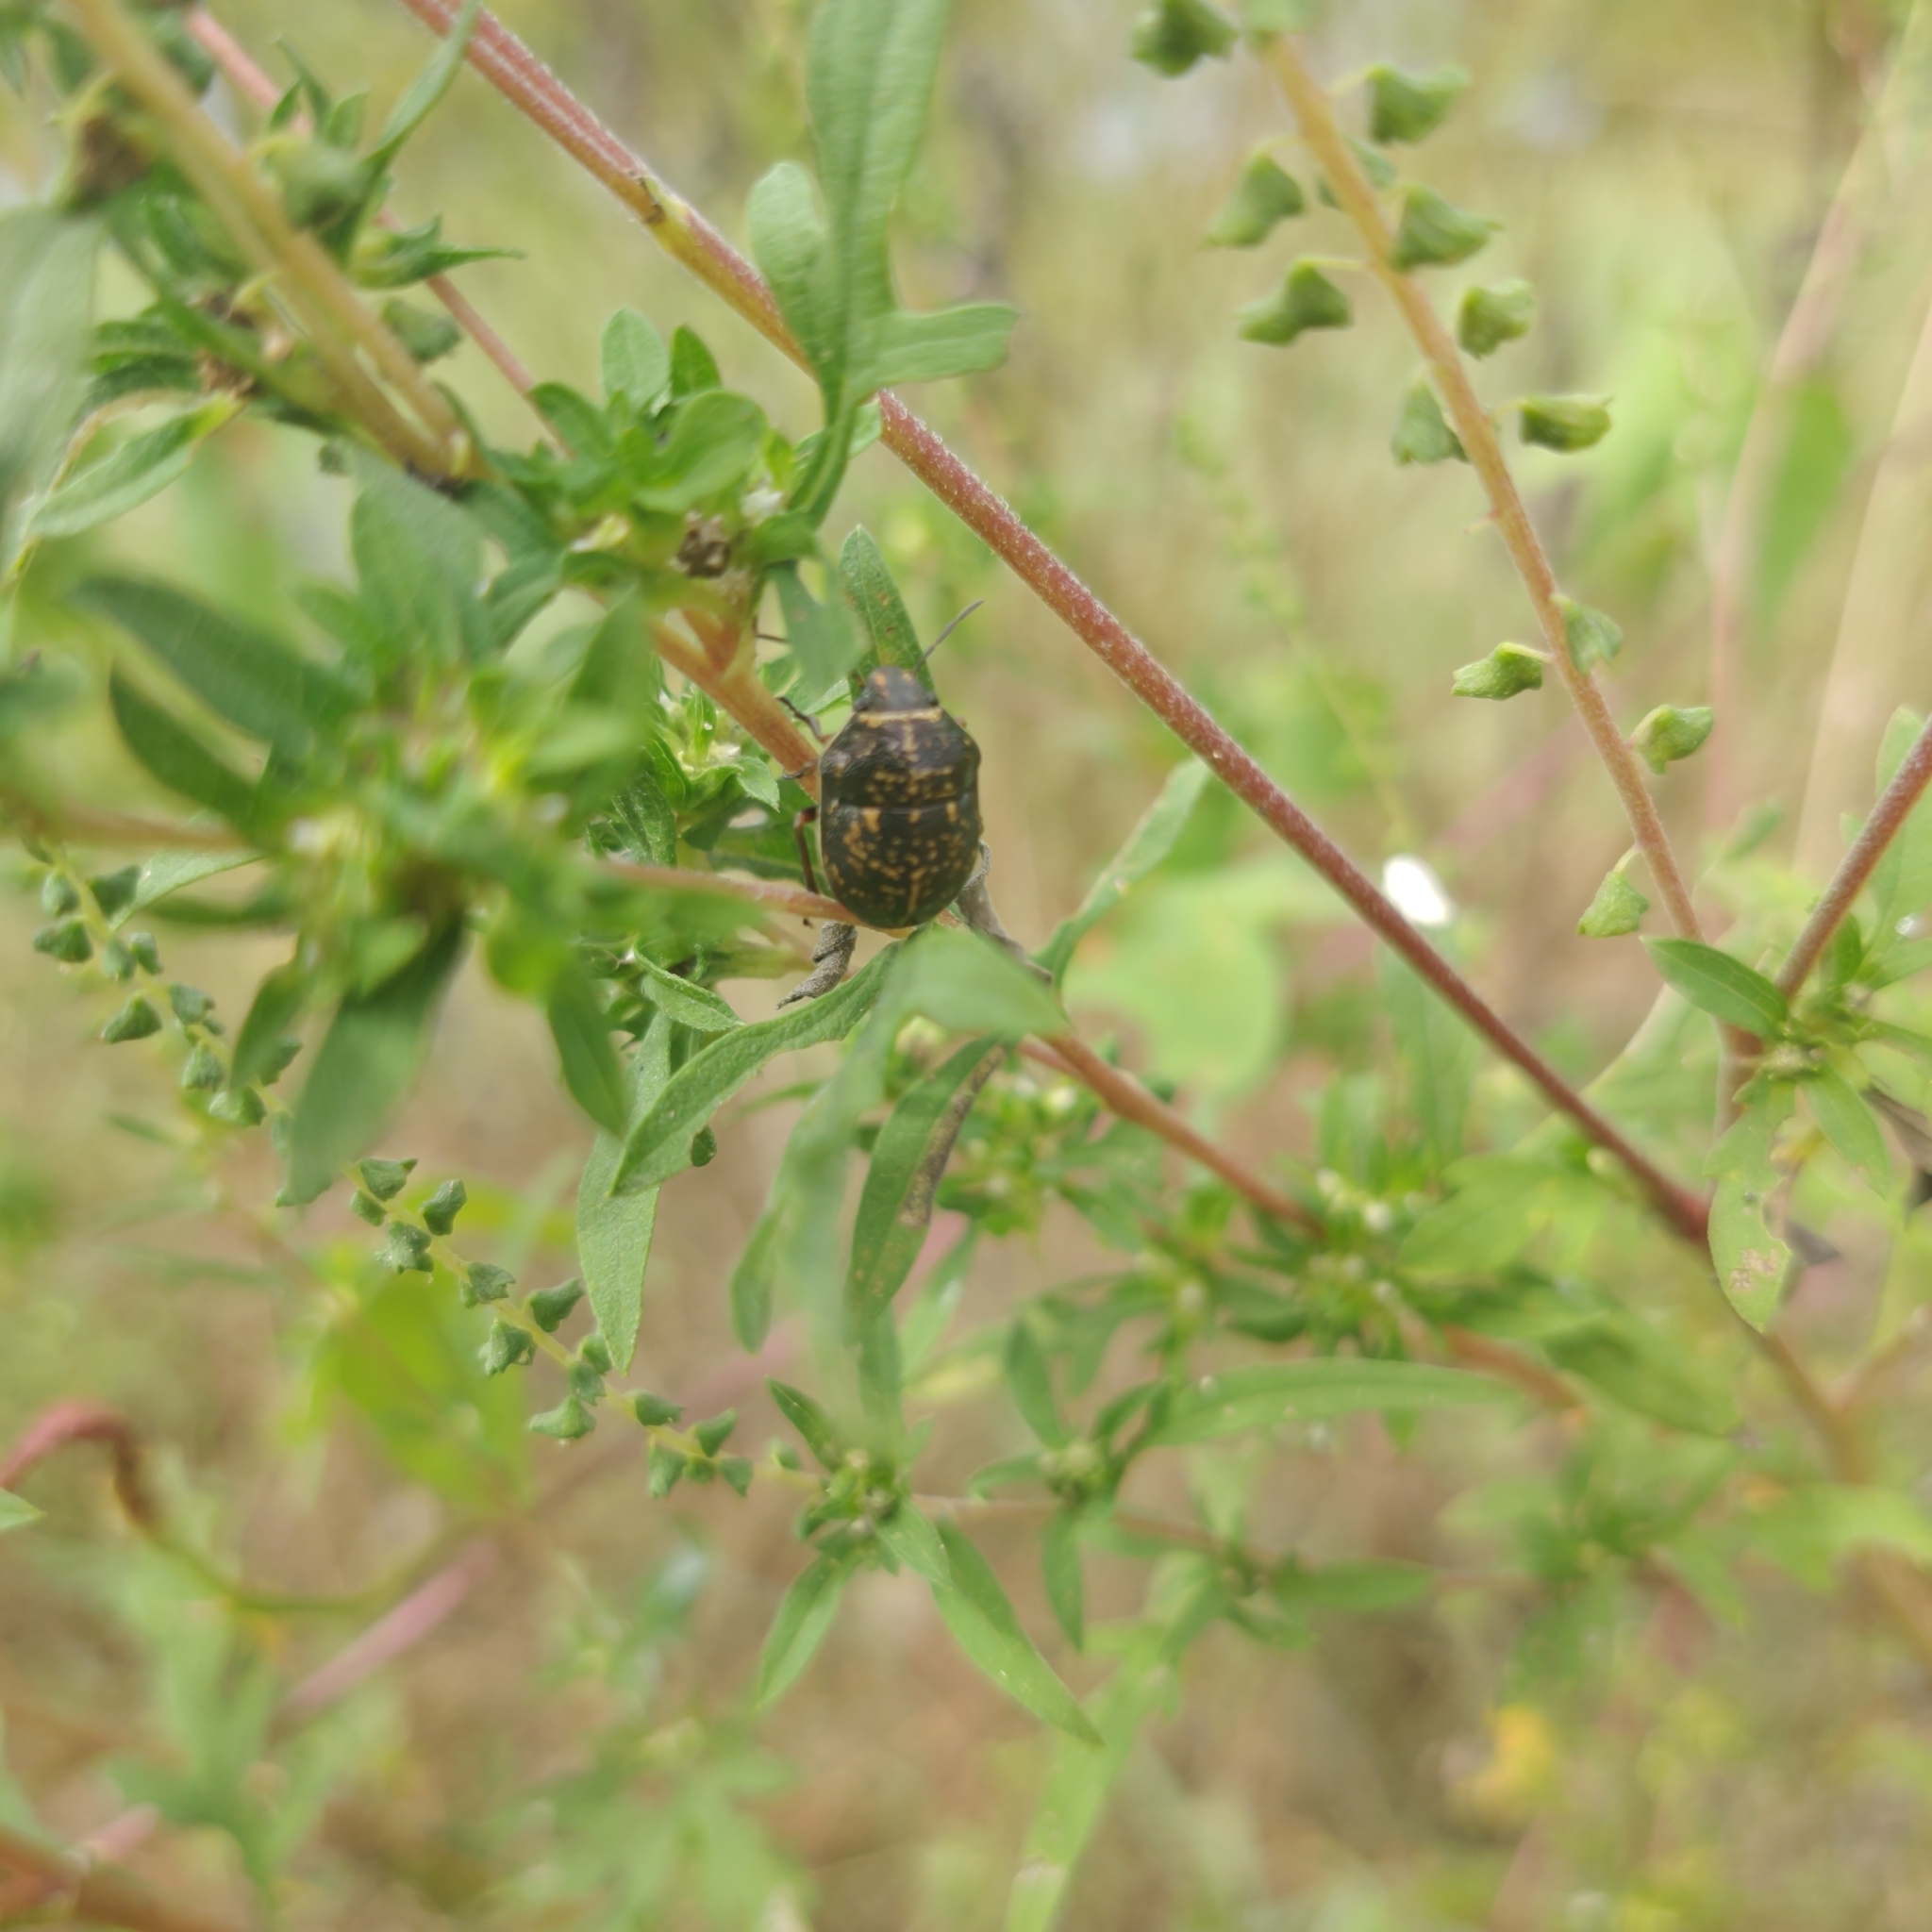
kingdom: Animalia
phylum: Arthropoda
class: Insecta
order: Hemiptera
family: Scutelleridae
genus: Orsilochides
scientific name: Orsilochides guttata
